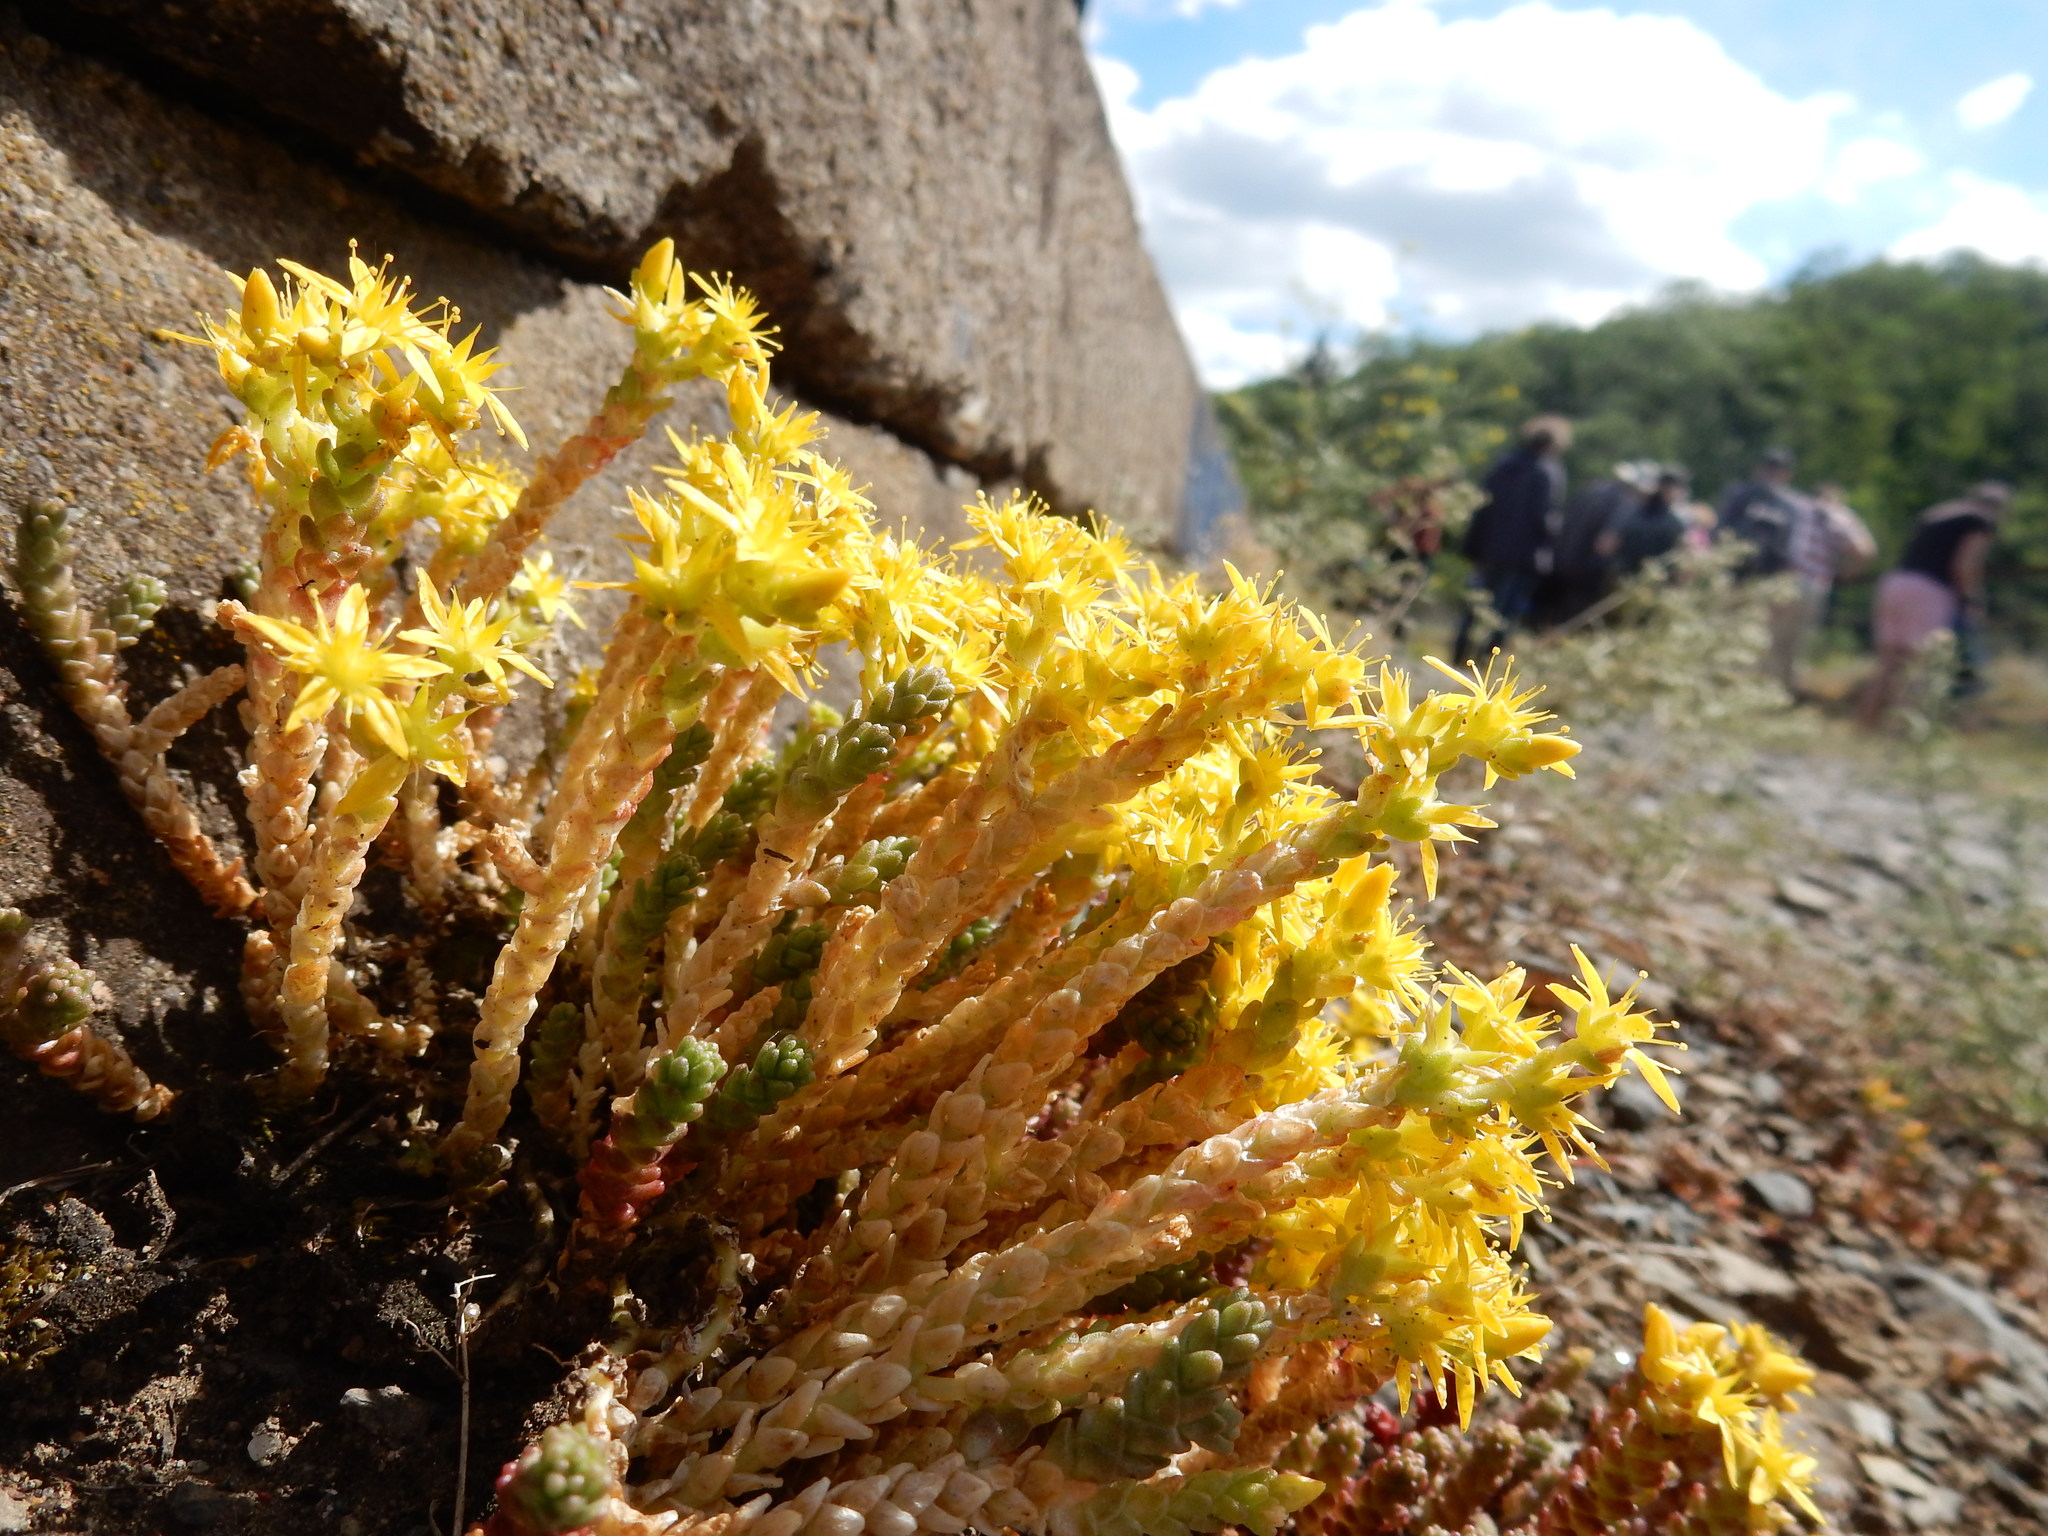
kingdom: Plantae
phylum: Tracheophyta
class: Magnoliopsida
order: Saxifragales
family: Crassulaceae
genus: Sedum
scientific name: Sedum acre
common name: Biting stonecrop
